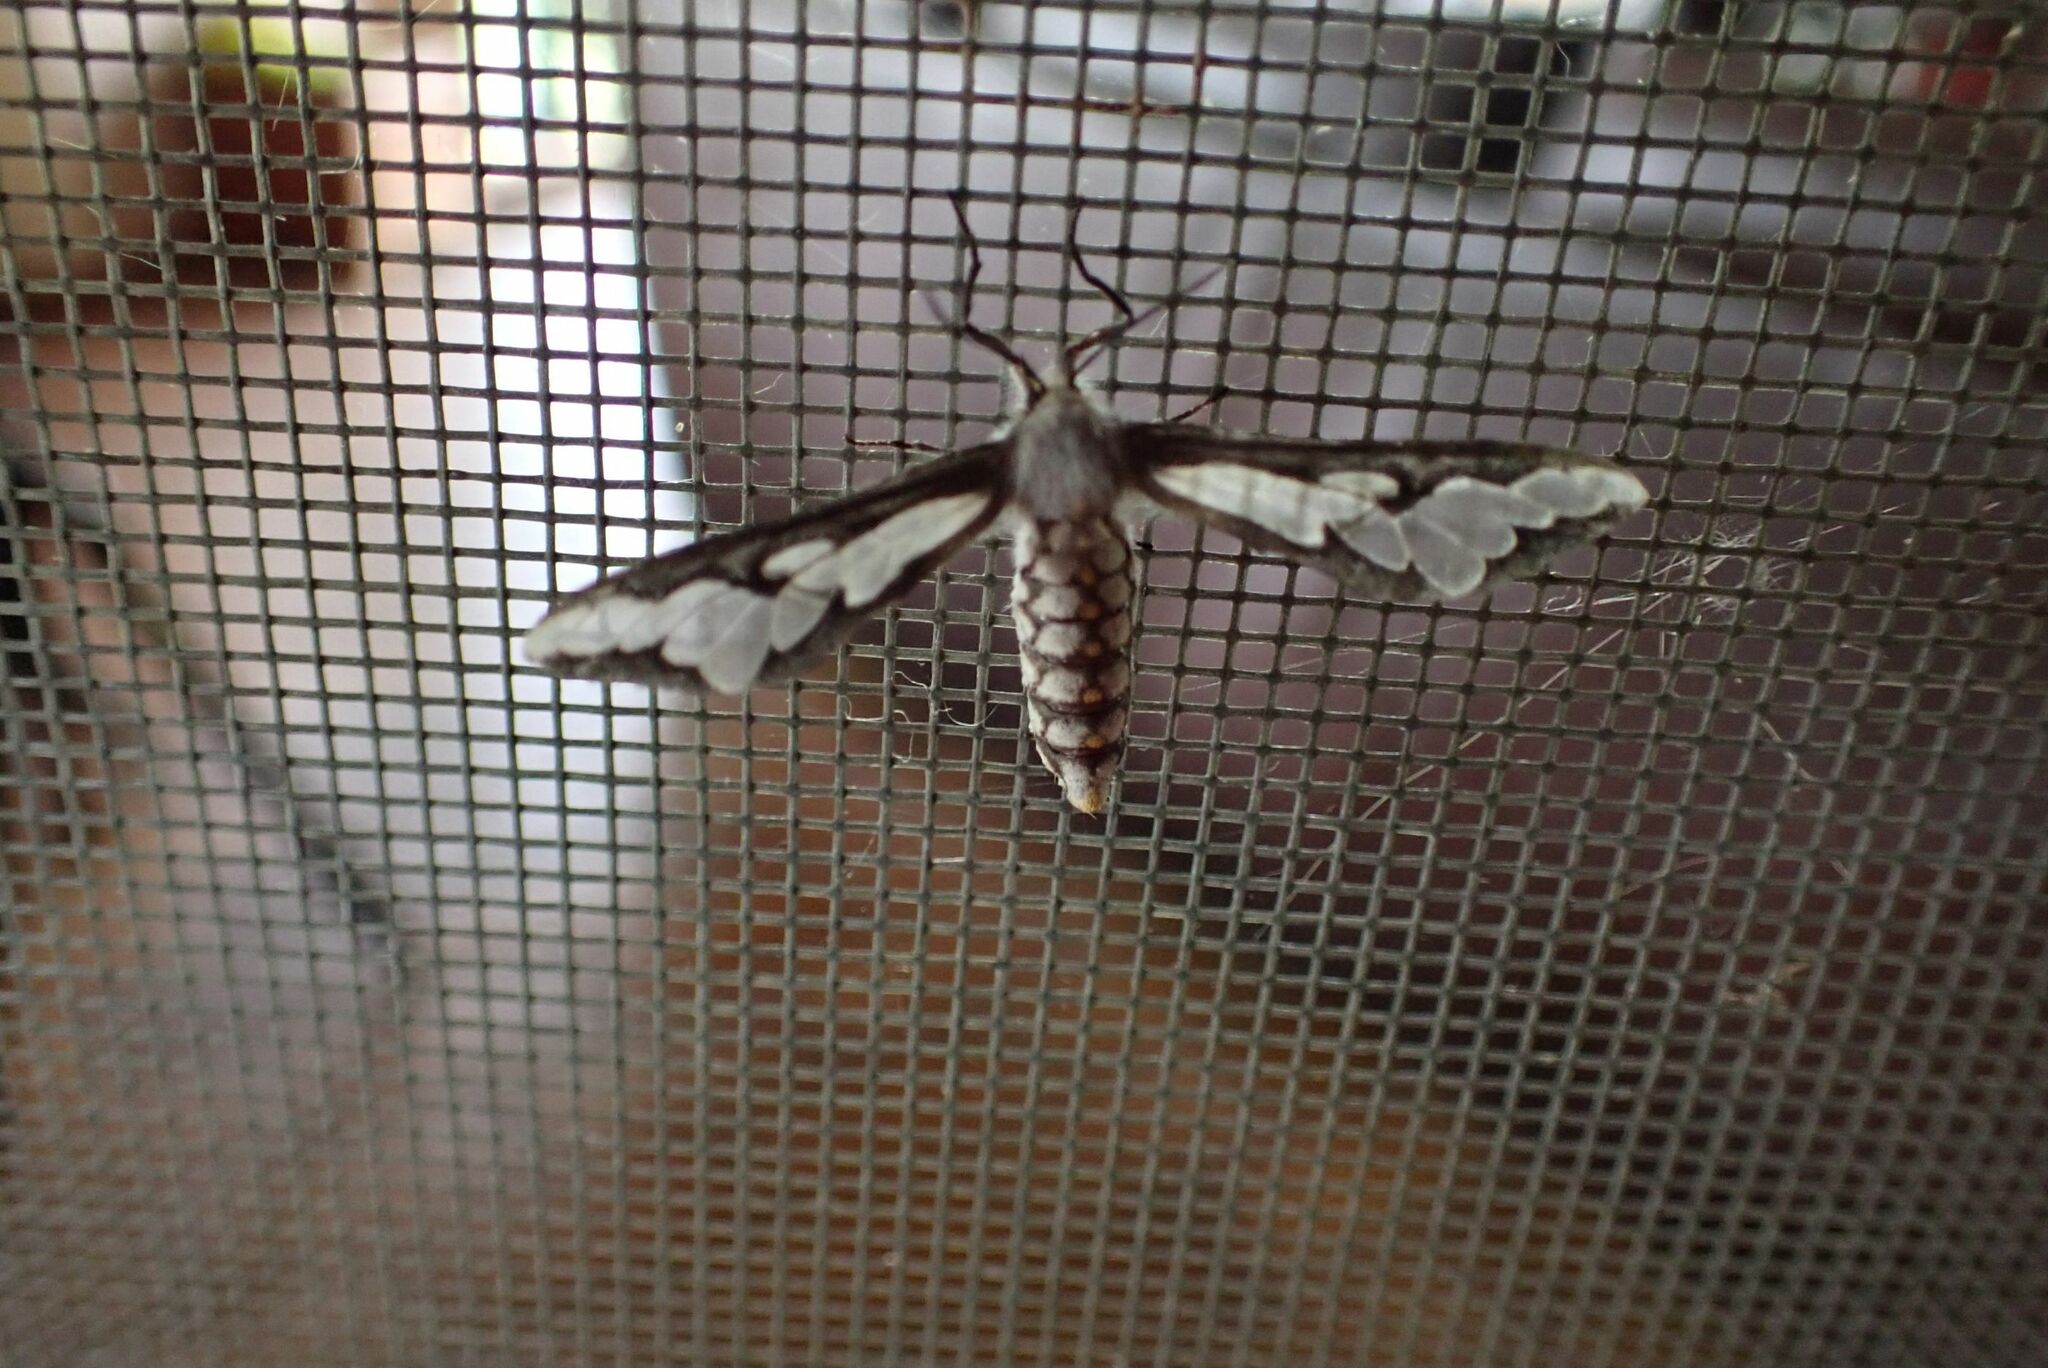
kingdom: Animalia
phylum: Arthropoda
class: Insecta
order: Lepidoptera
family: Erebidae
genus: Thyretes
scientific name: Thyretes caffra
